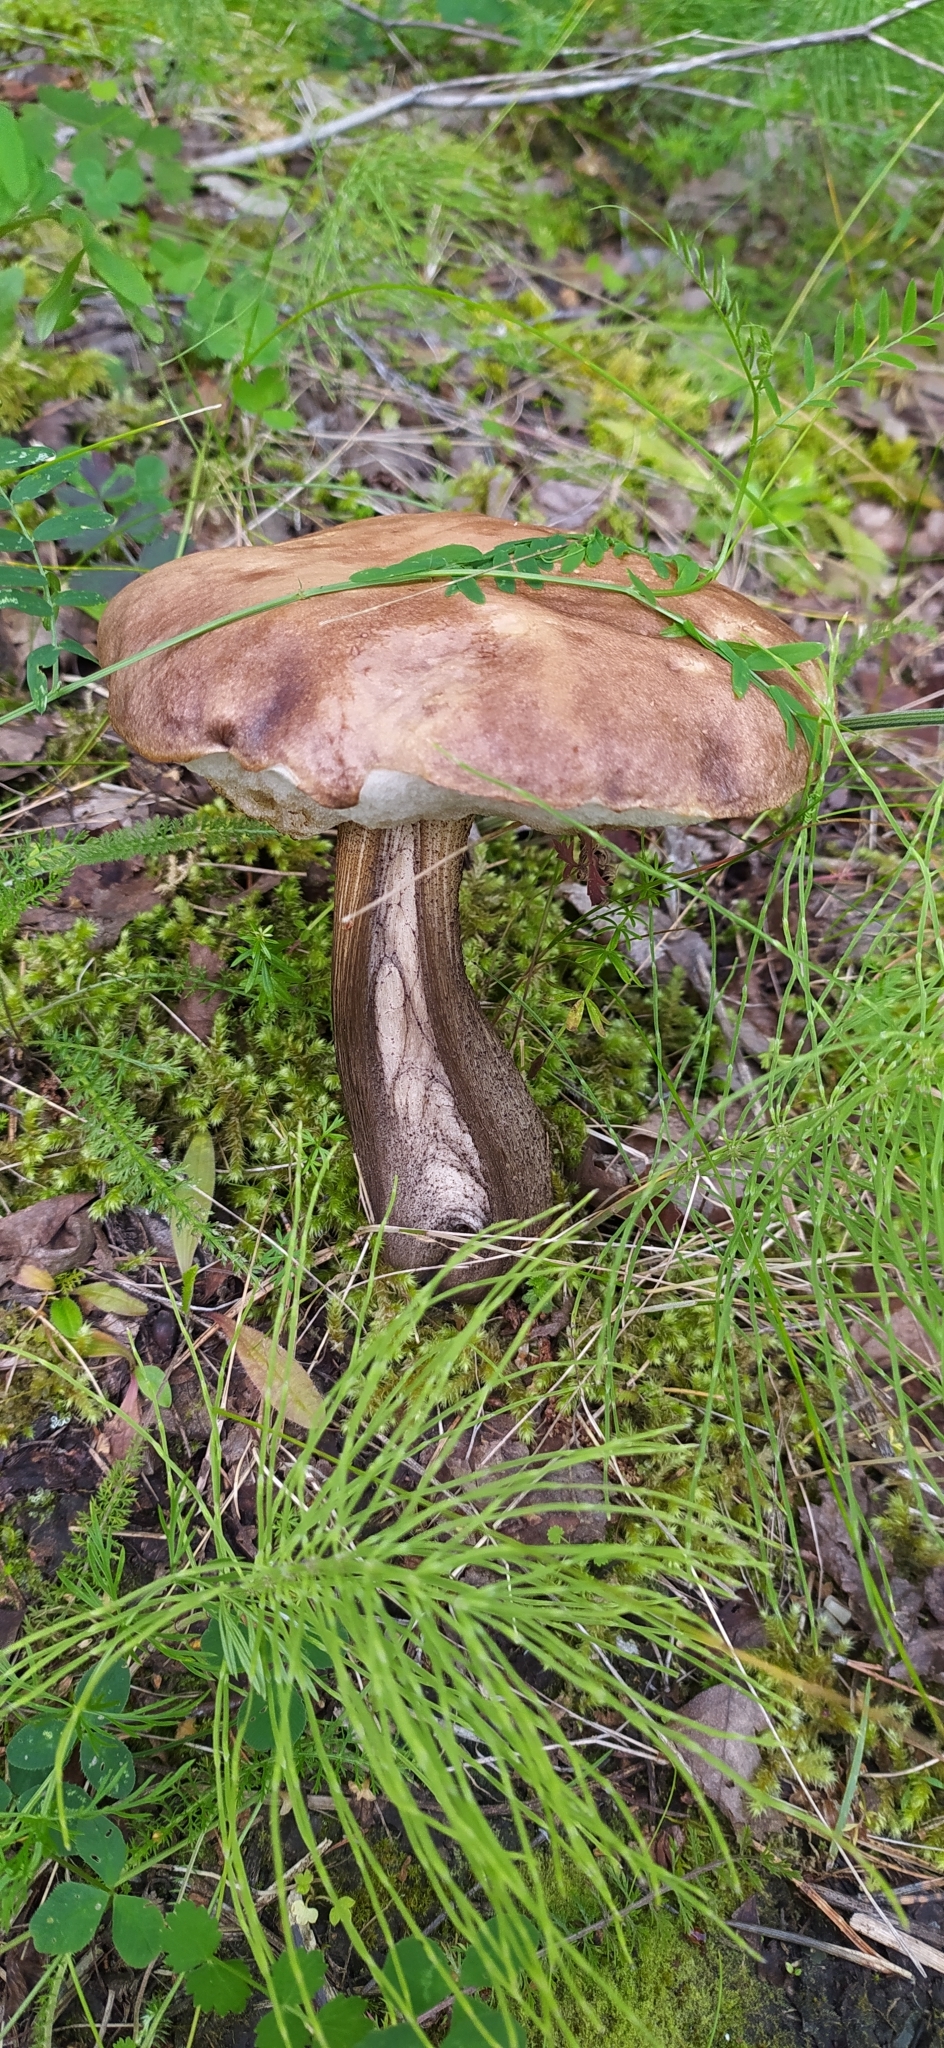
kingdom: Fungi
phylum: Basidiomycota
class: Agaricomycetes
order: Boletales
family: Boletaceae
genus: Leccinum
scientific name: Leccinum scabrum
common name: Blushing bolete
